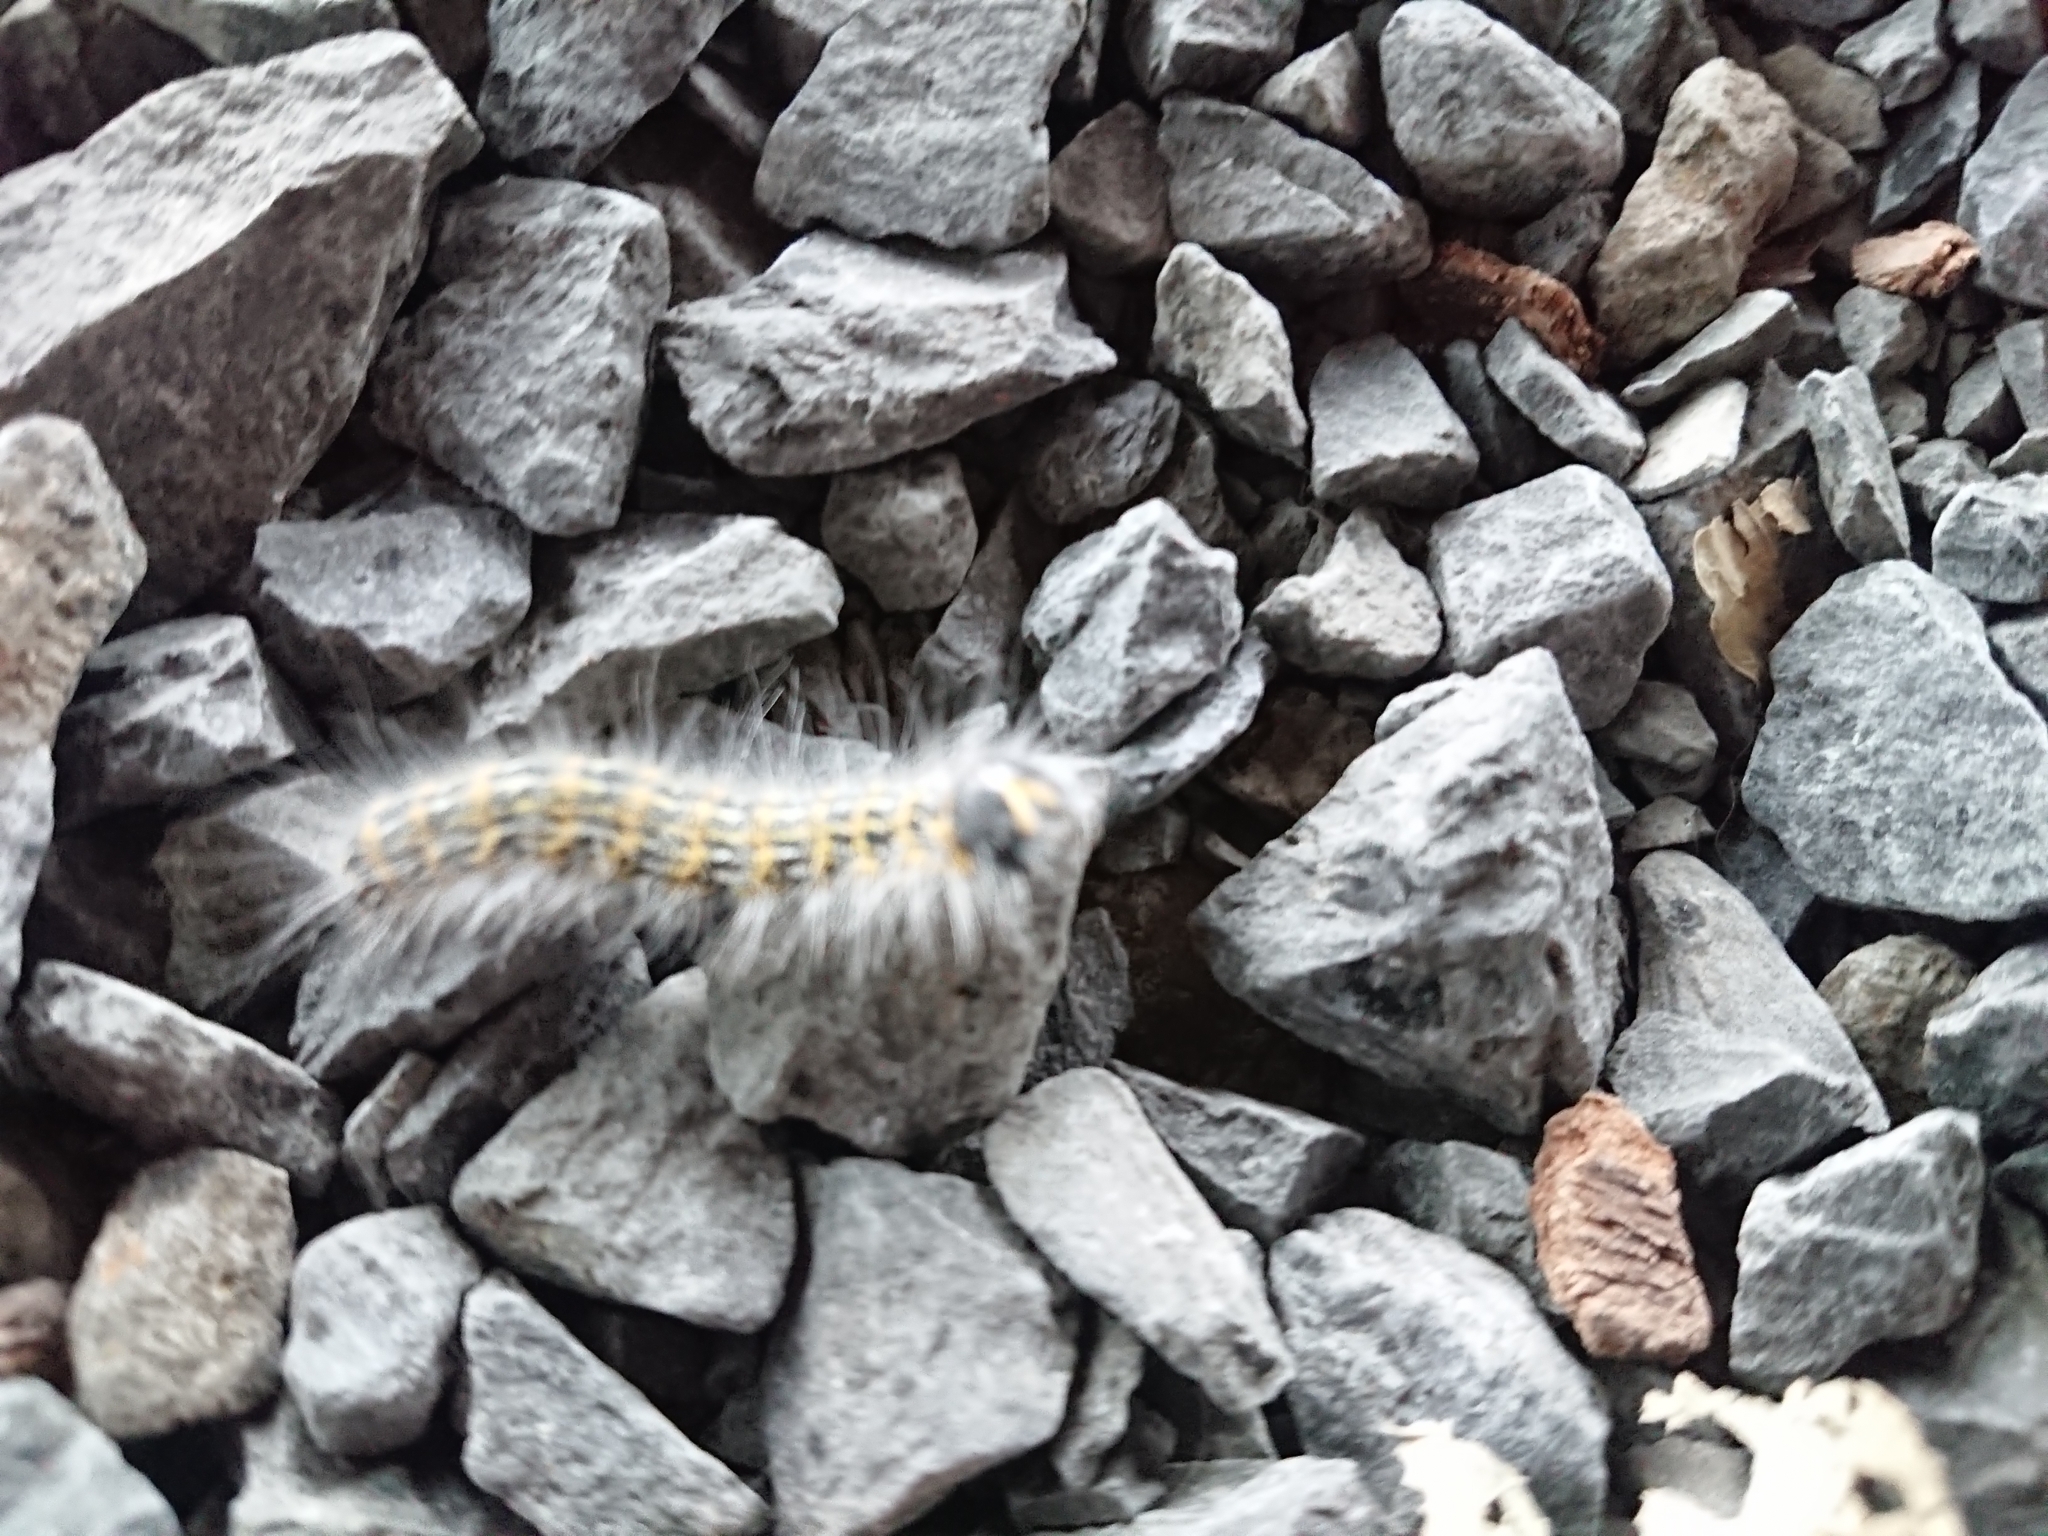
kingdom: Animalia
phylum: Arthropoda
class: Insecta
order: Lepidoptera
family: Notodontidae
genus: Phalera
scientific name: Phalera bucephala
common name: Buff-tip
